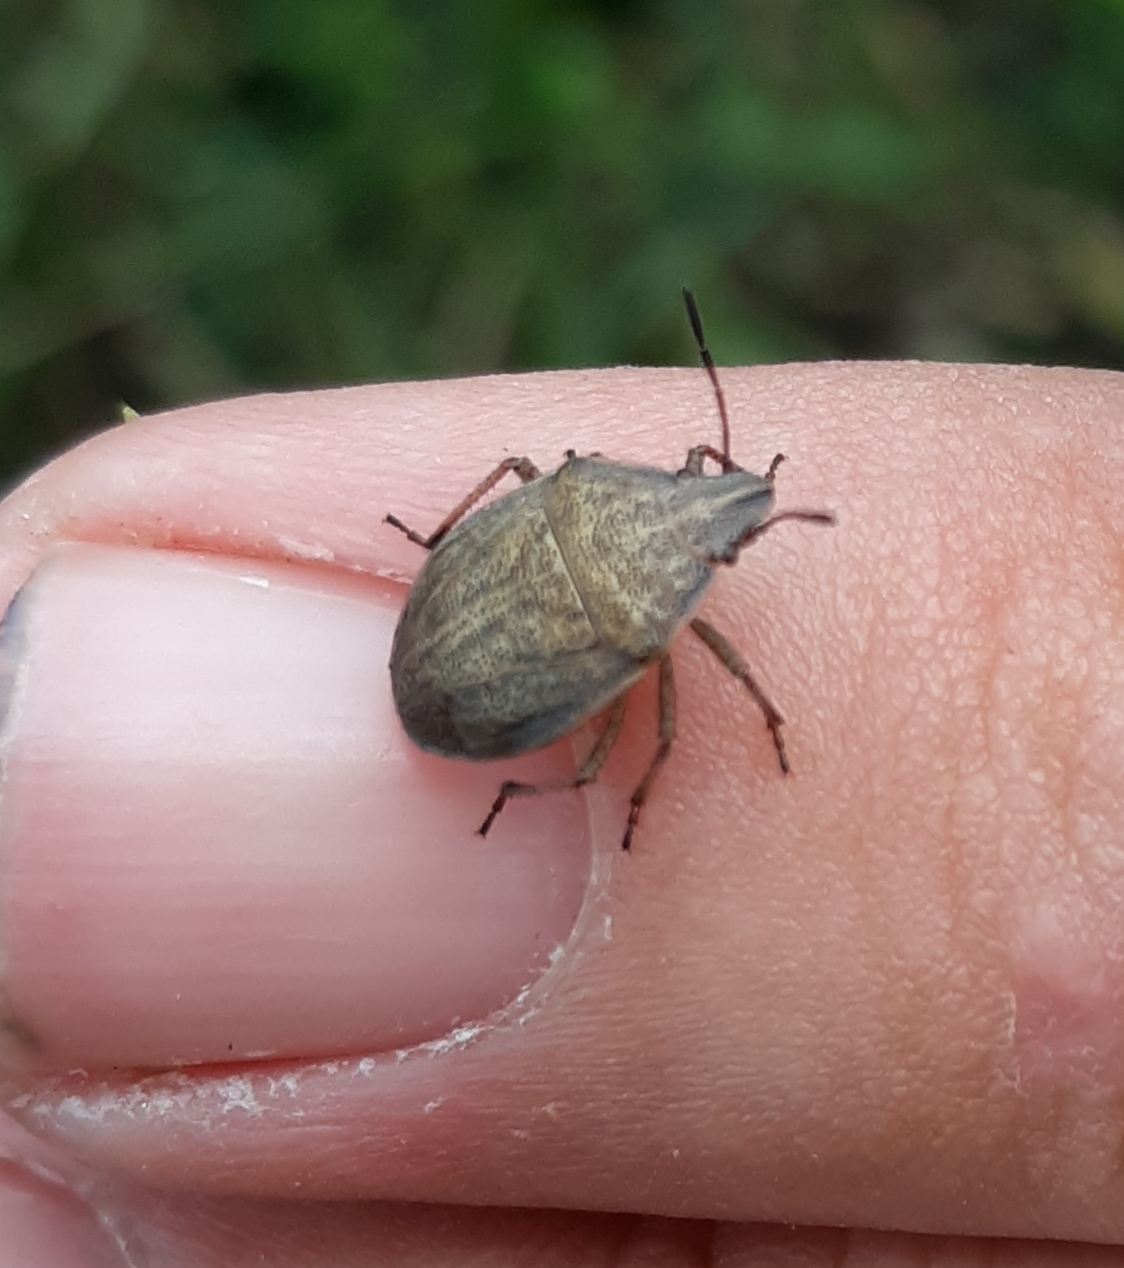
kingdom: Animalia
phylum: Arthropoda
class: Insecta
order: Hemiptera
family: Pentatomidae
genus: Coenus
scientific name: Coenus delius
